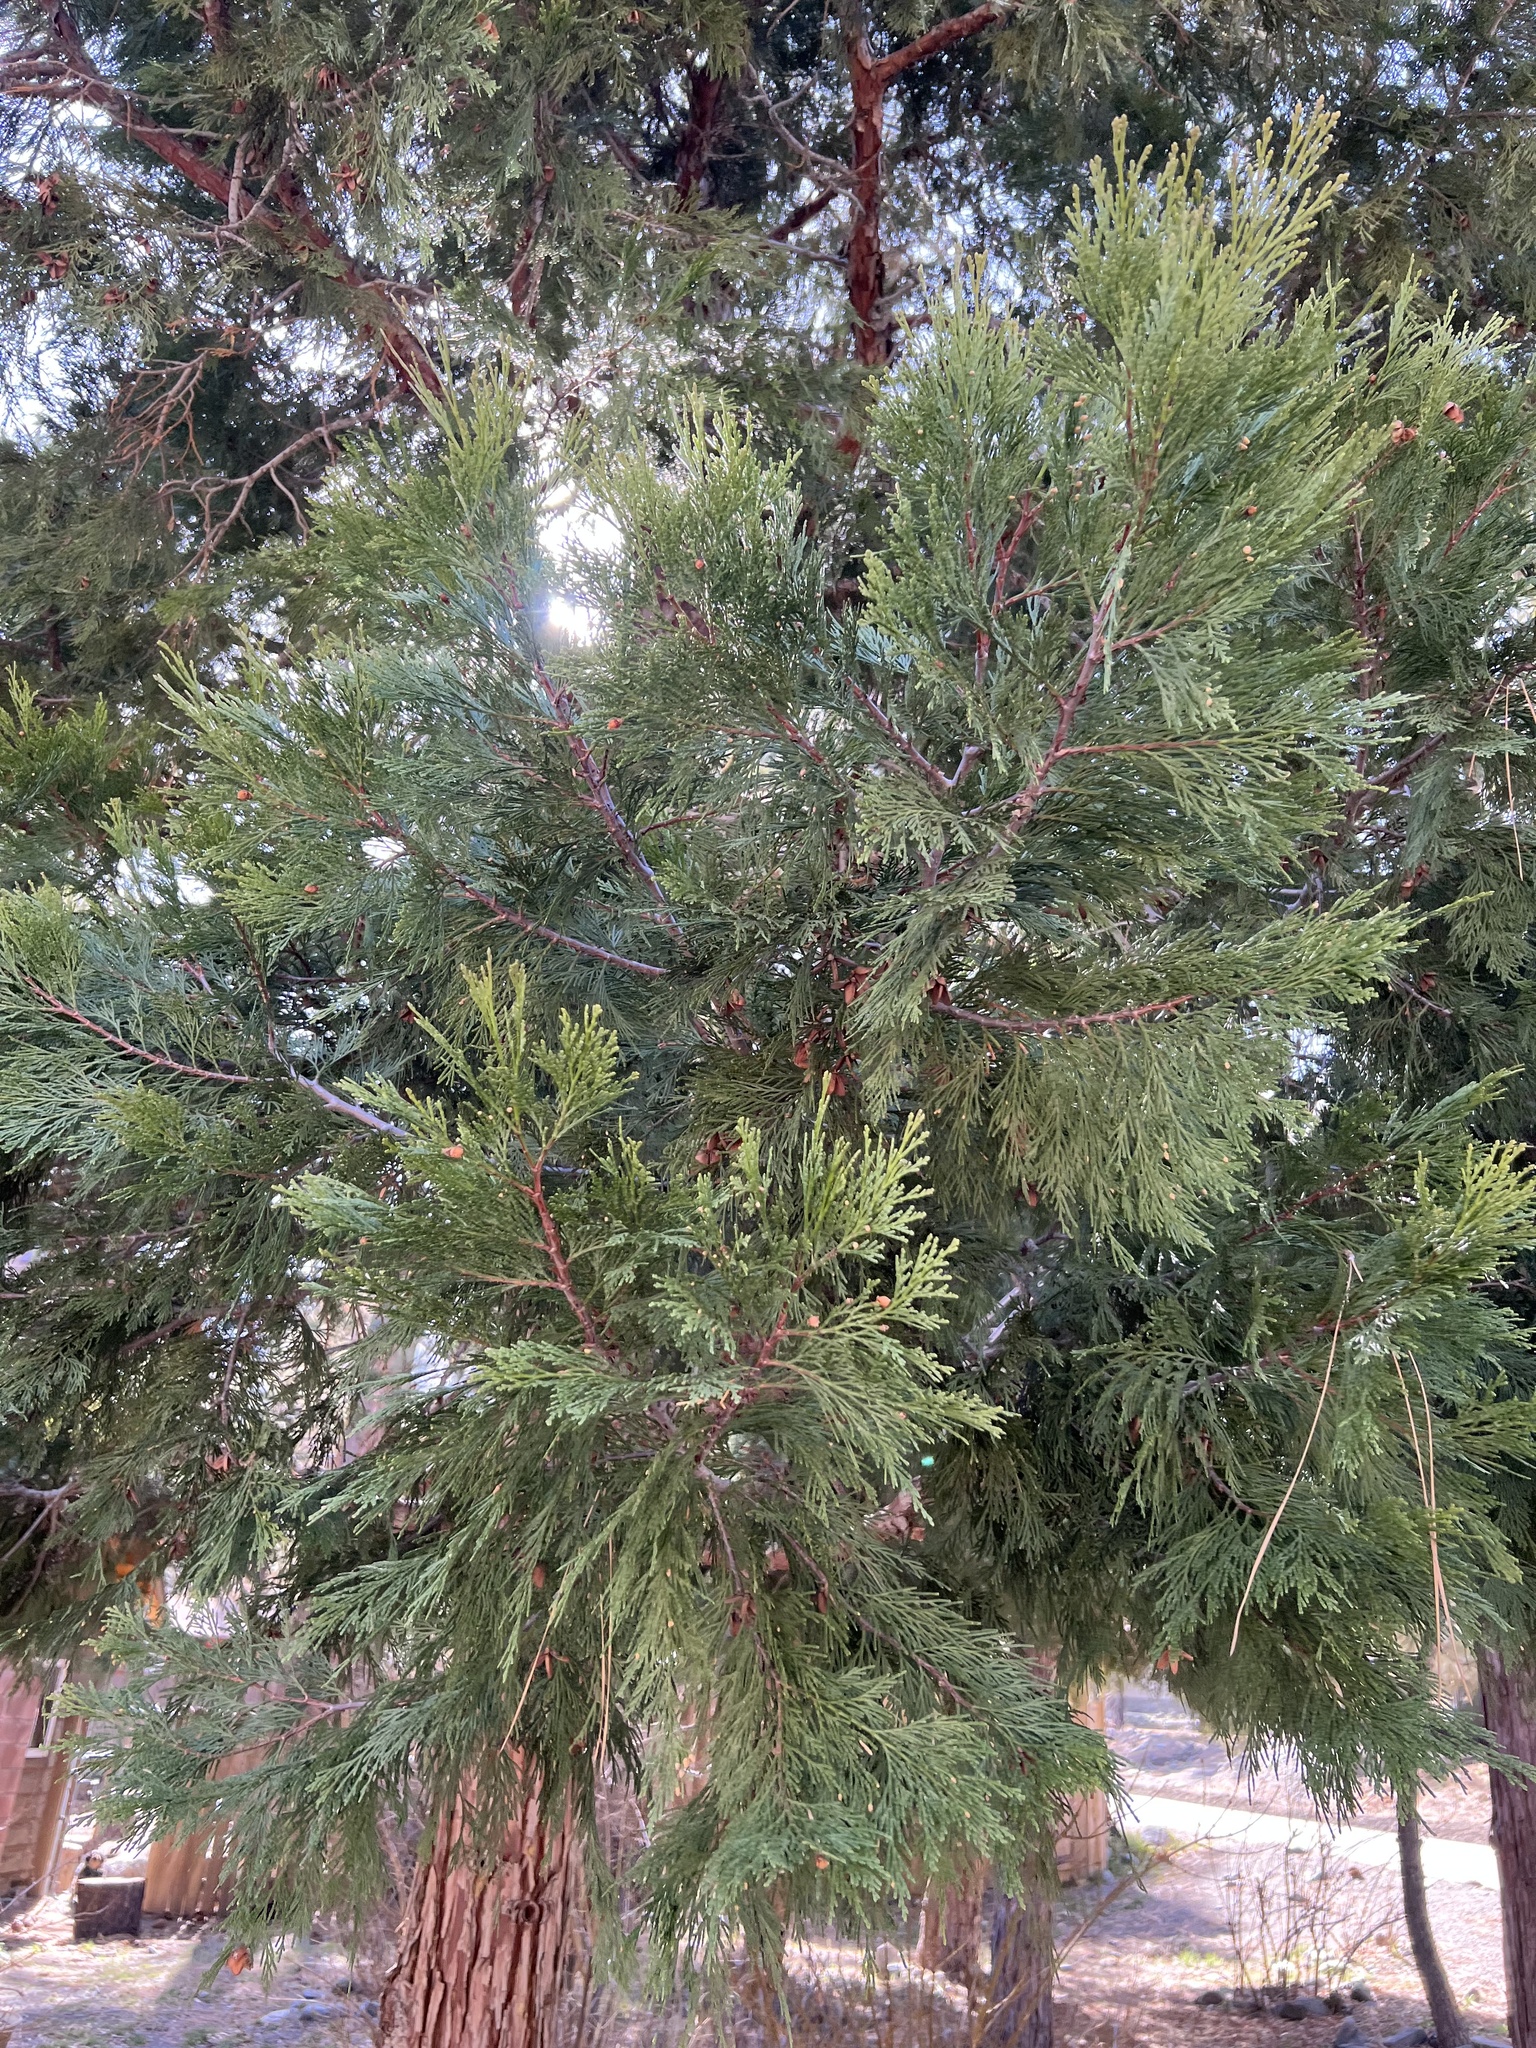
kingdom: Plantae
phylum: Tracheophyta
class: Pinopsida
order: Pinales
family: Cupressaceae
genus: Calocedrus
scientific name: Calocedrus decurrens
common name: Californian incense-cedar
